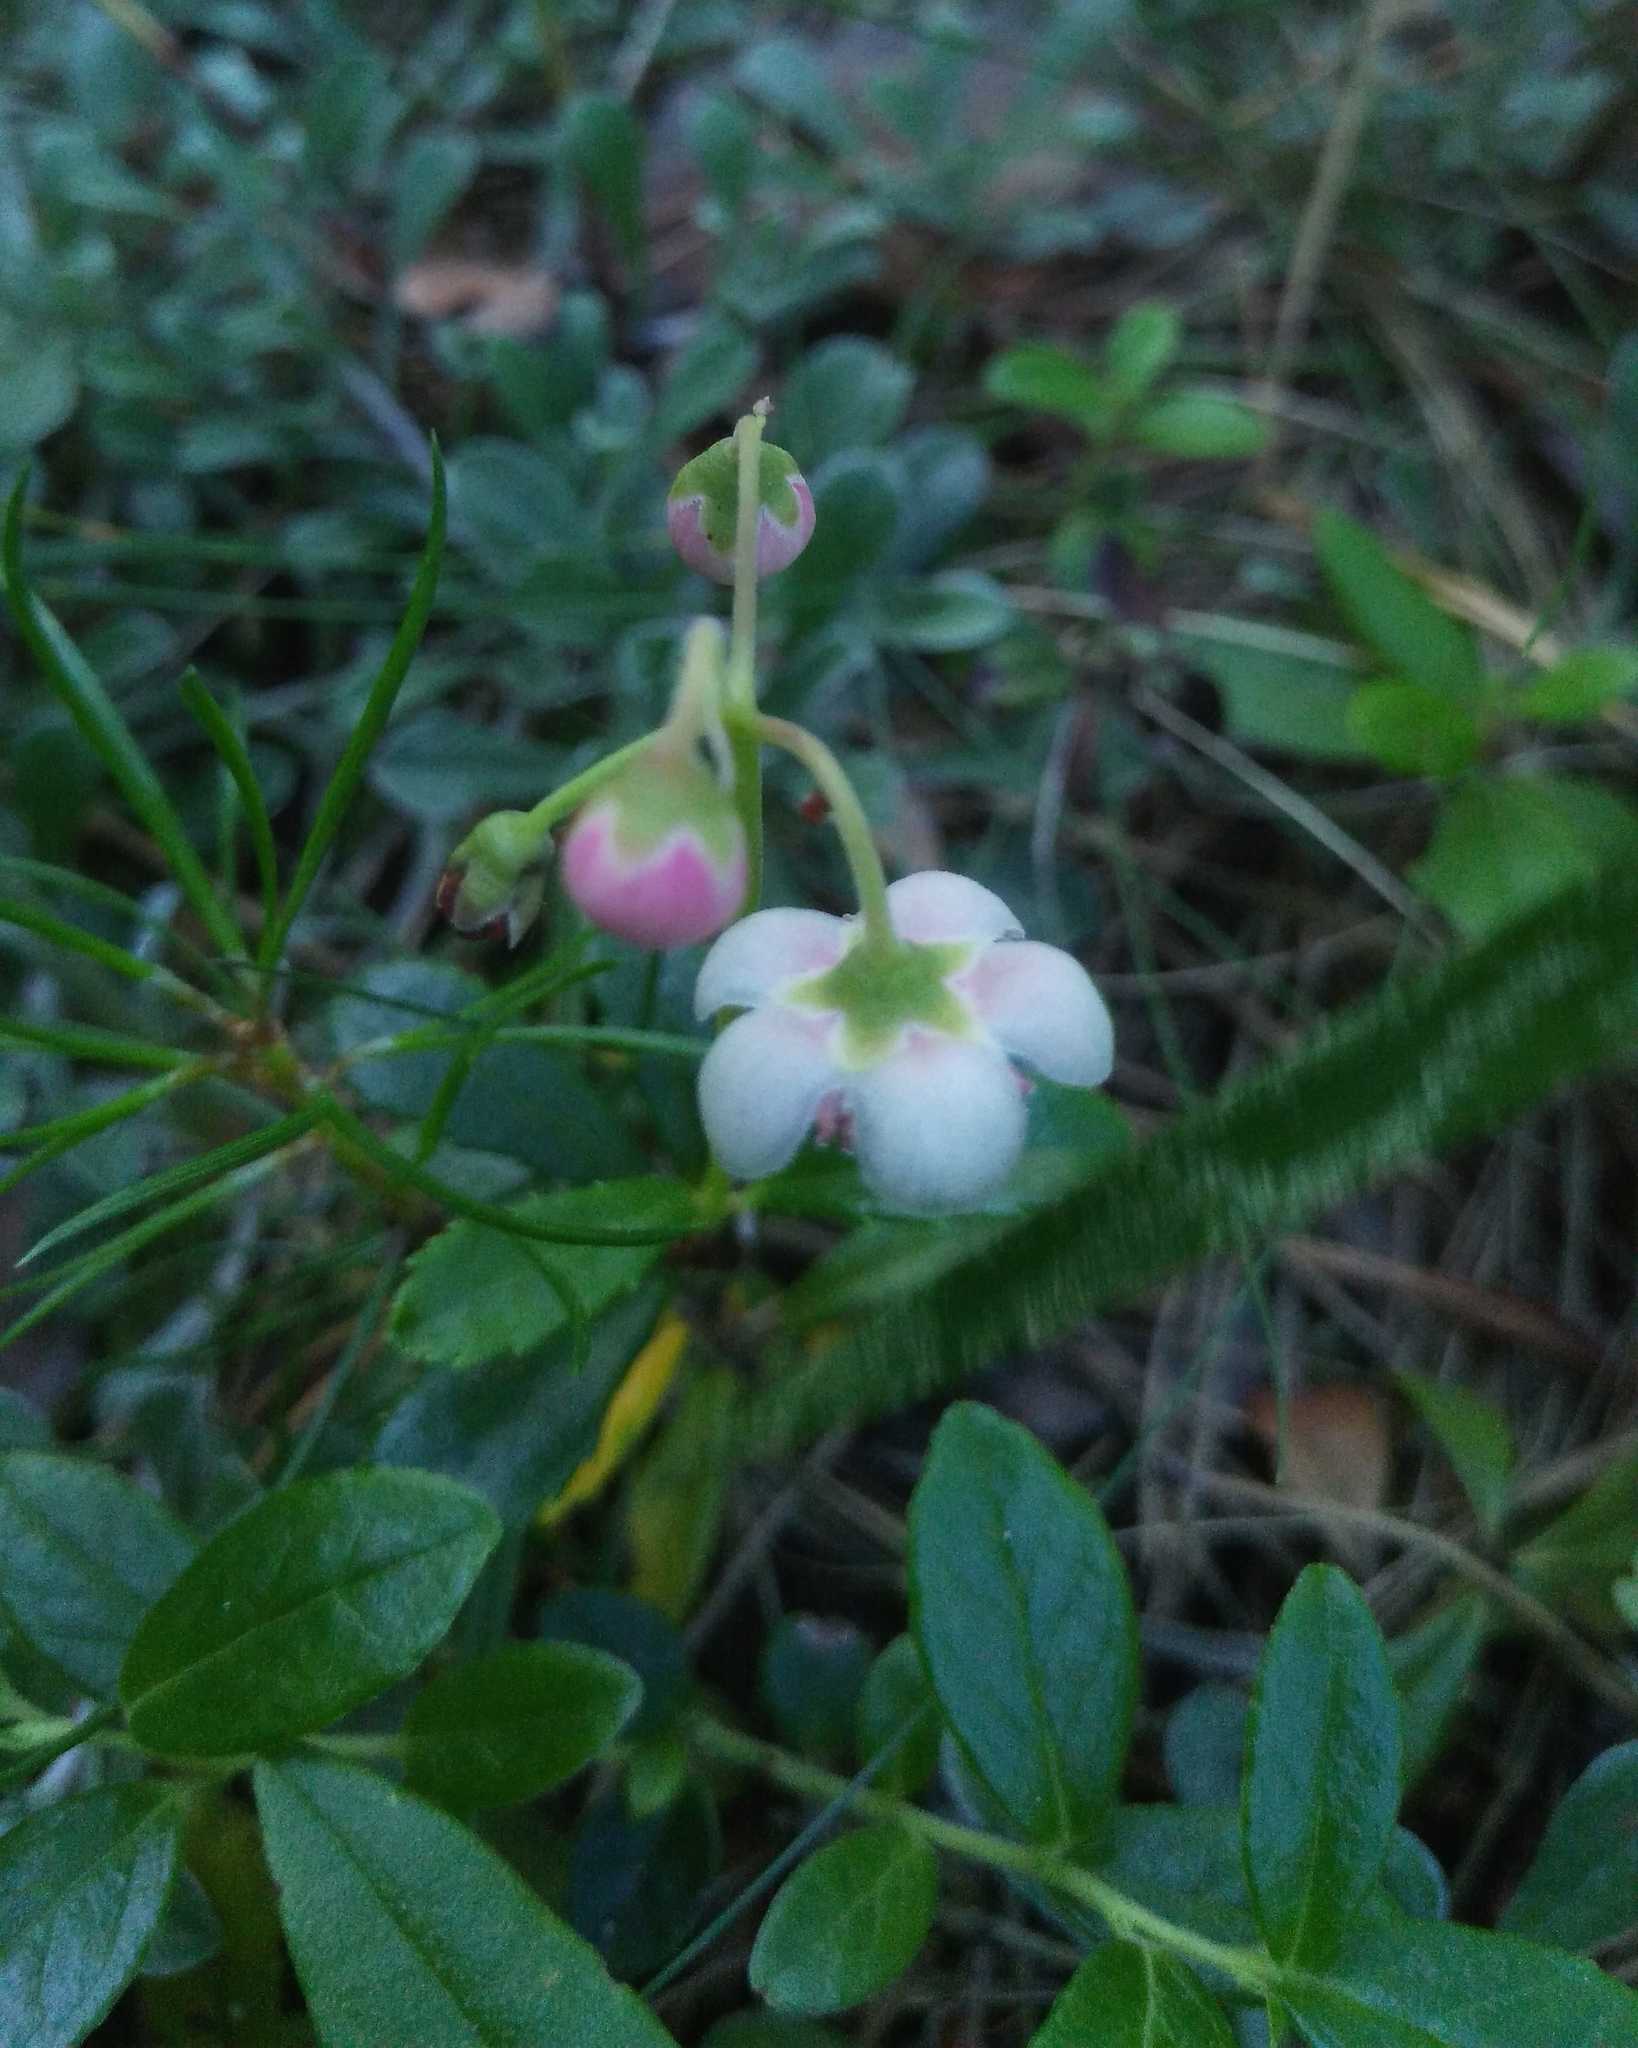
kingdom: Plantae
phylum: Tracheophyta
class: Magnoliopsida
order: Ericales
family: Ericaceae
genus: Chimaphila
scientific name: Chimaphila umbellata
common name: Pipsissewa
